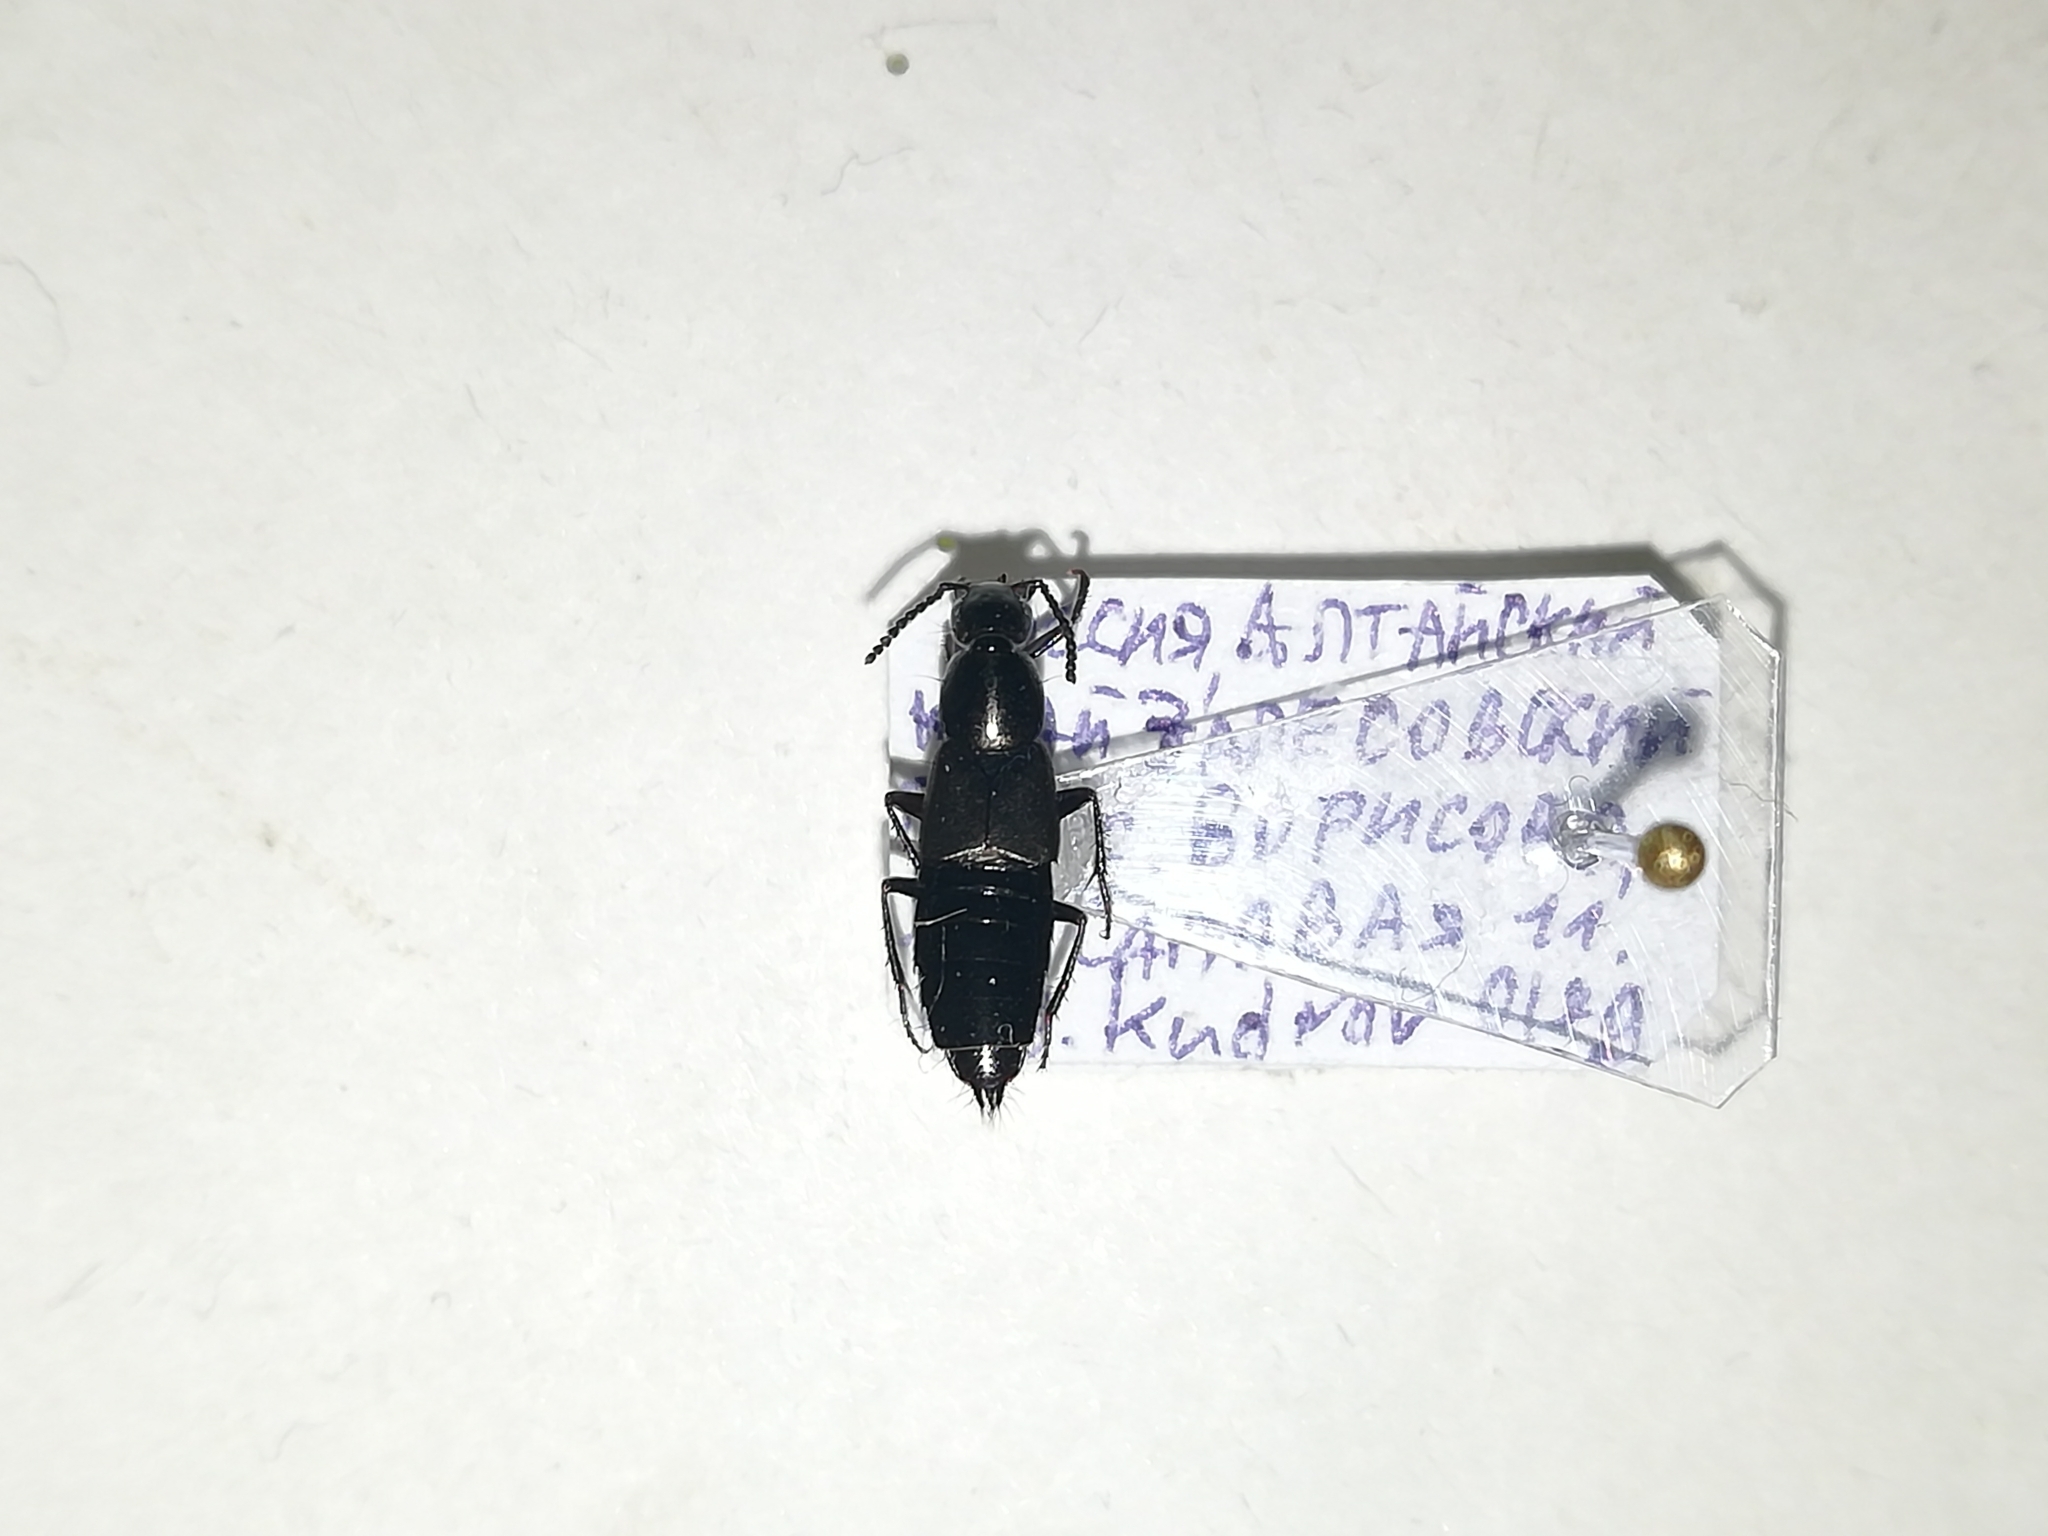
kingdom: Animalia
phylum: Arthropoda
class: Insecta
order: Coleoptera
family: Staphylinidae
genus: Philonthus
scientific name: Philonthus decorus
